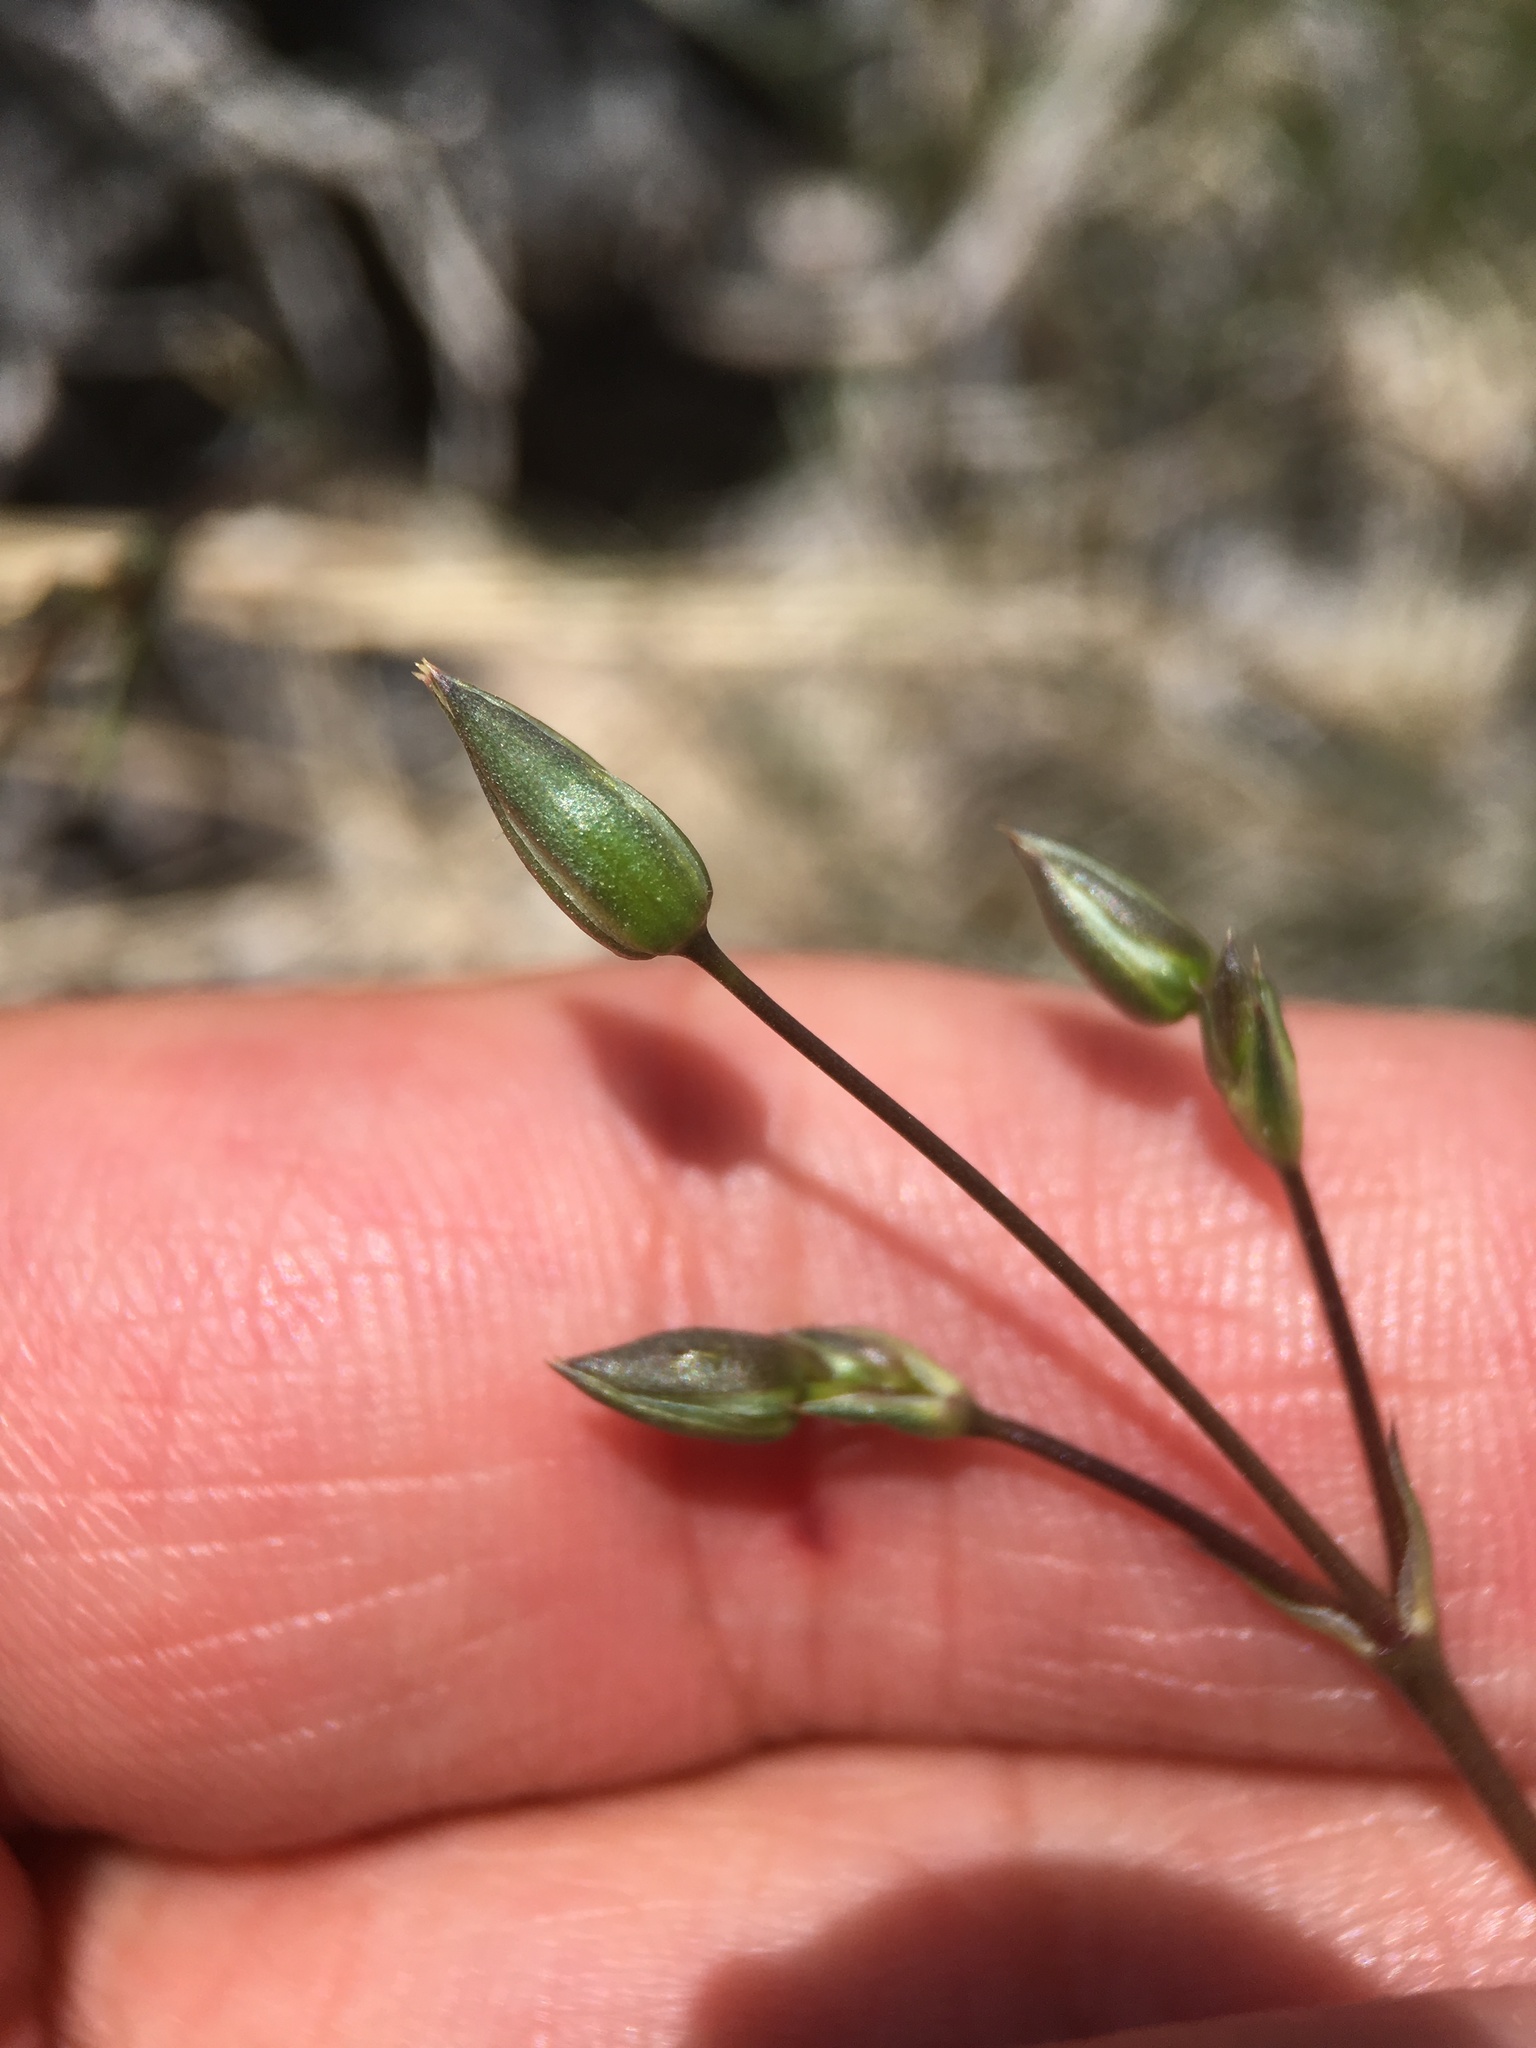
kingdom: Plantae
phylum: Tracheophyta
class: Magnoliopsida
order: Caryophyllales
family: Caryophyllaceae
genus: Eremogone
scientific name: Eremogone macradenia
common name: Mohave sandwort
